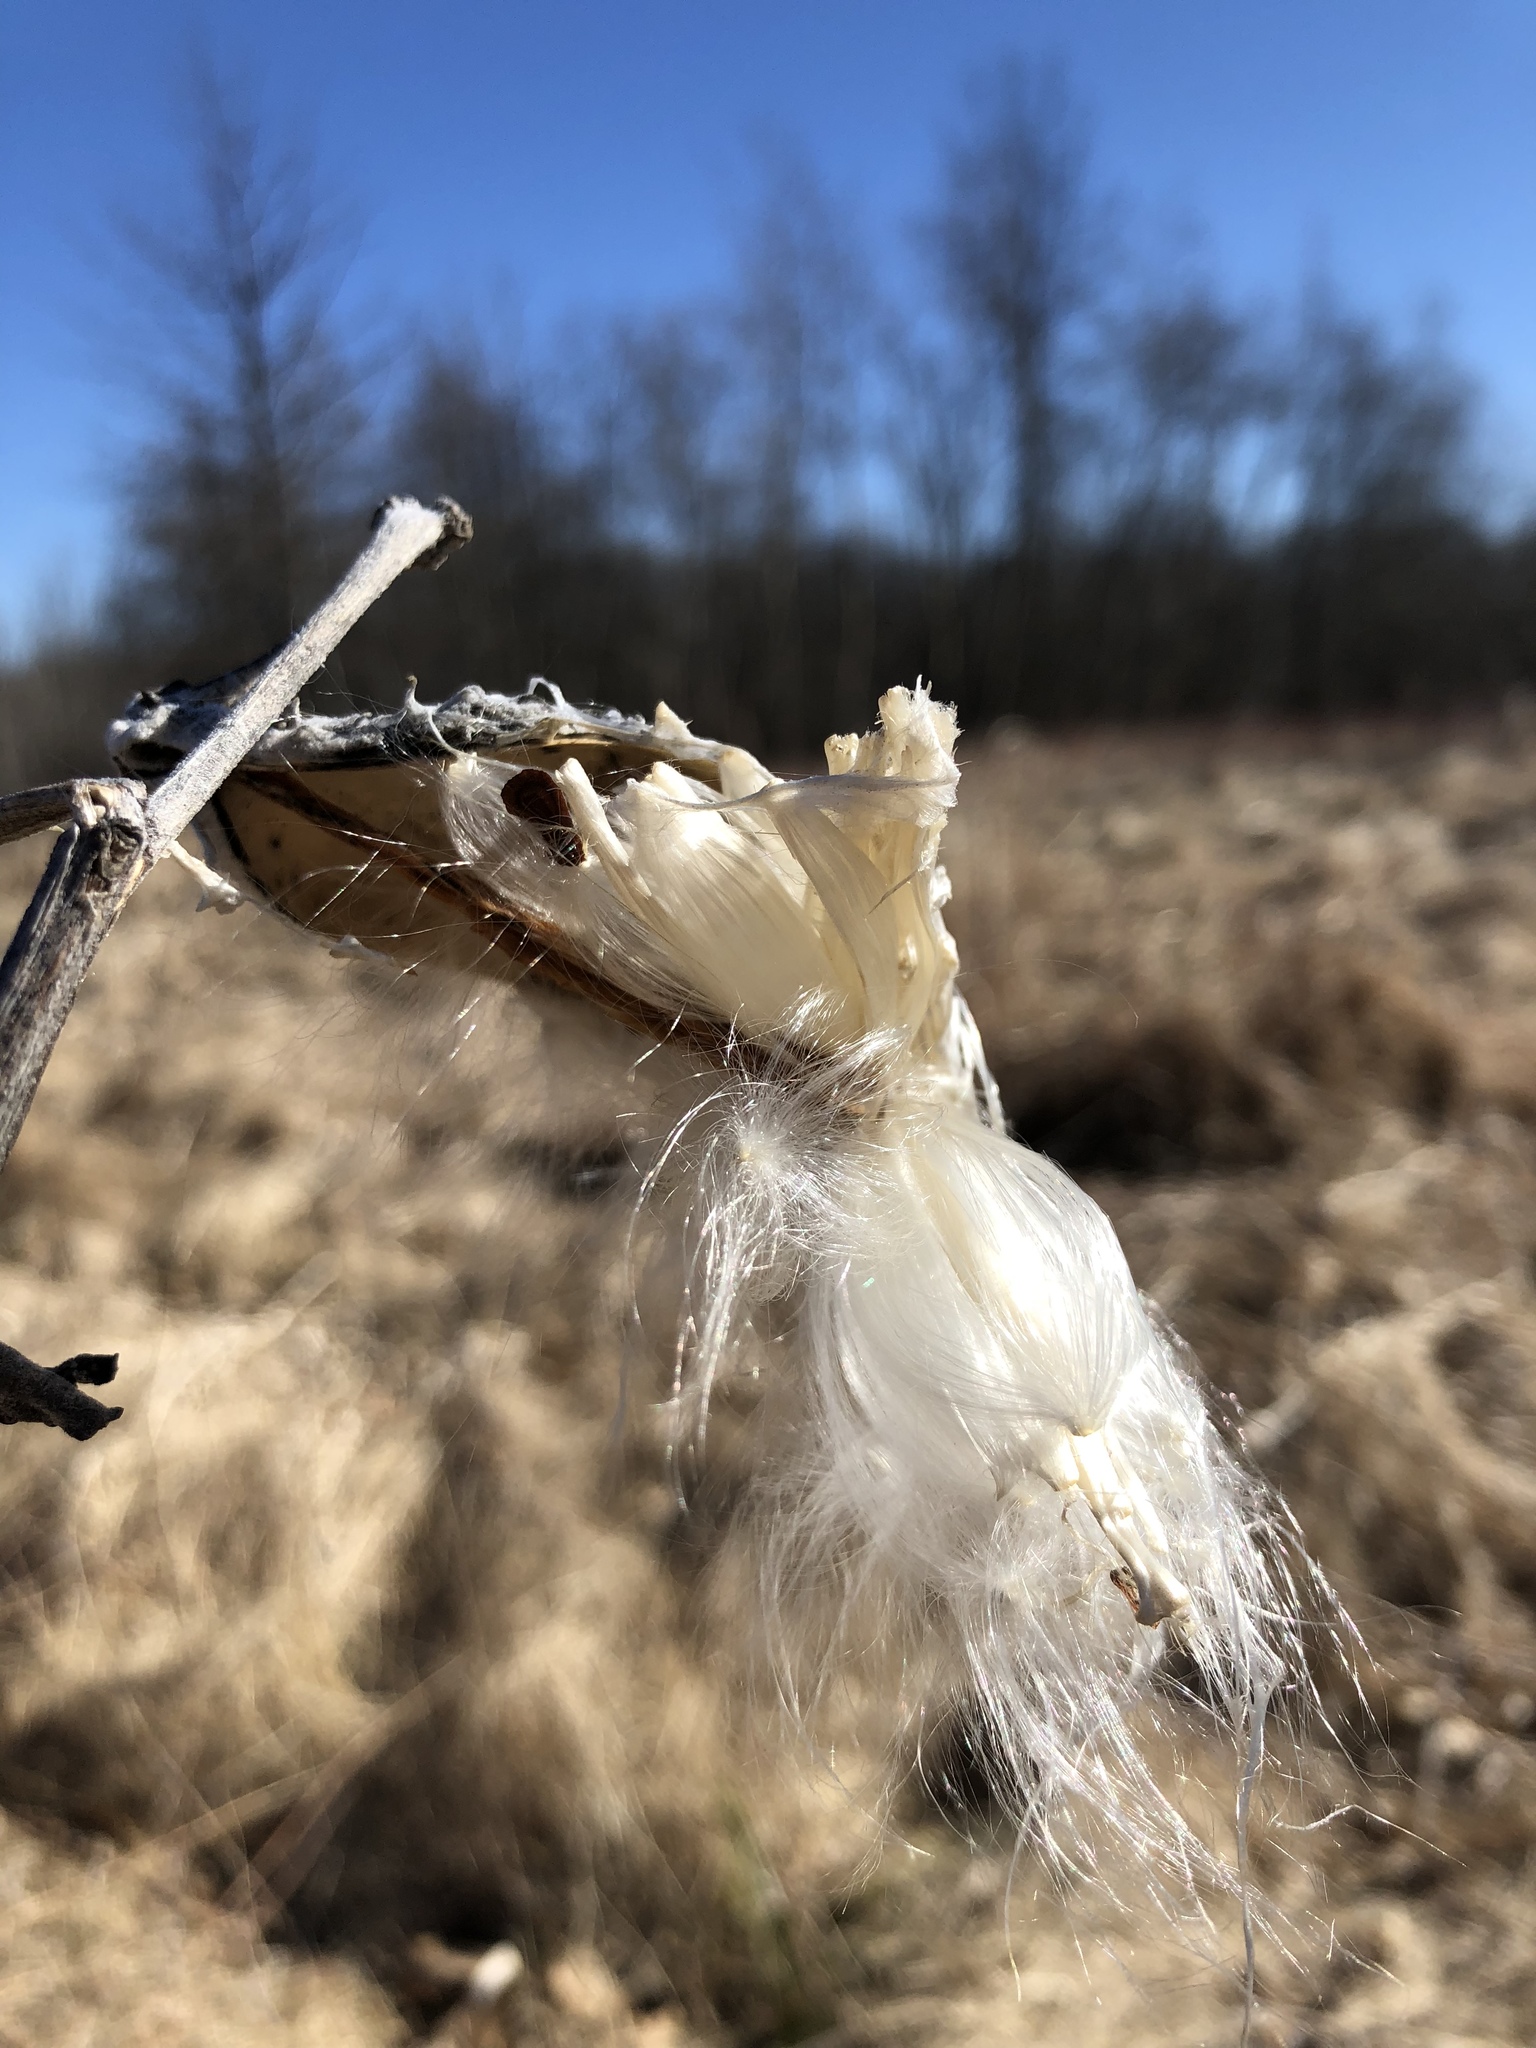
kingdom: Plantae
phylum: Tracheophyta
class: Magnoliopsida
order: Gentianales
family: Apocynaceae
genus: Asclepias
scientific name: Asclepias syriaca
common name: Common milkweed
